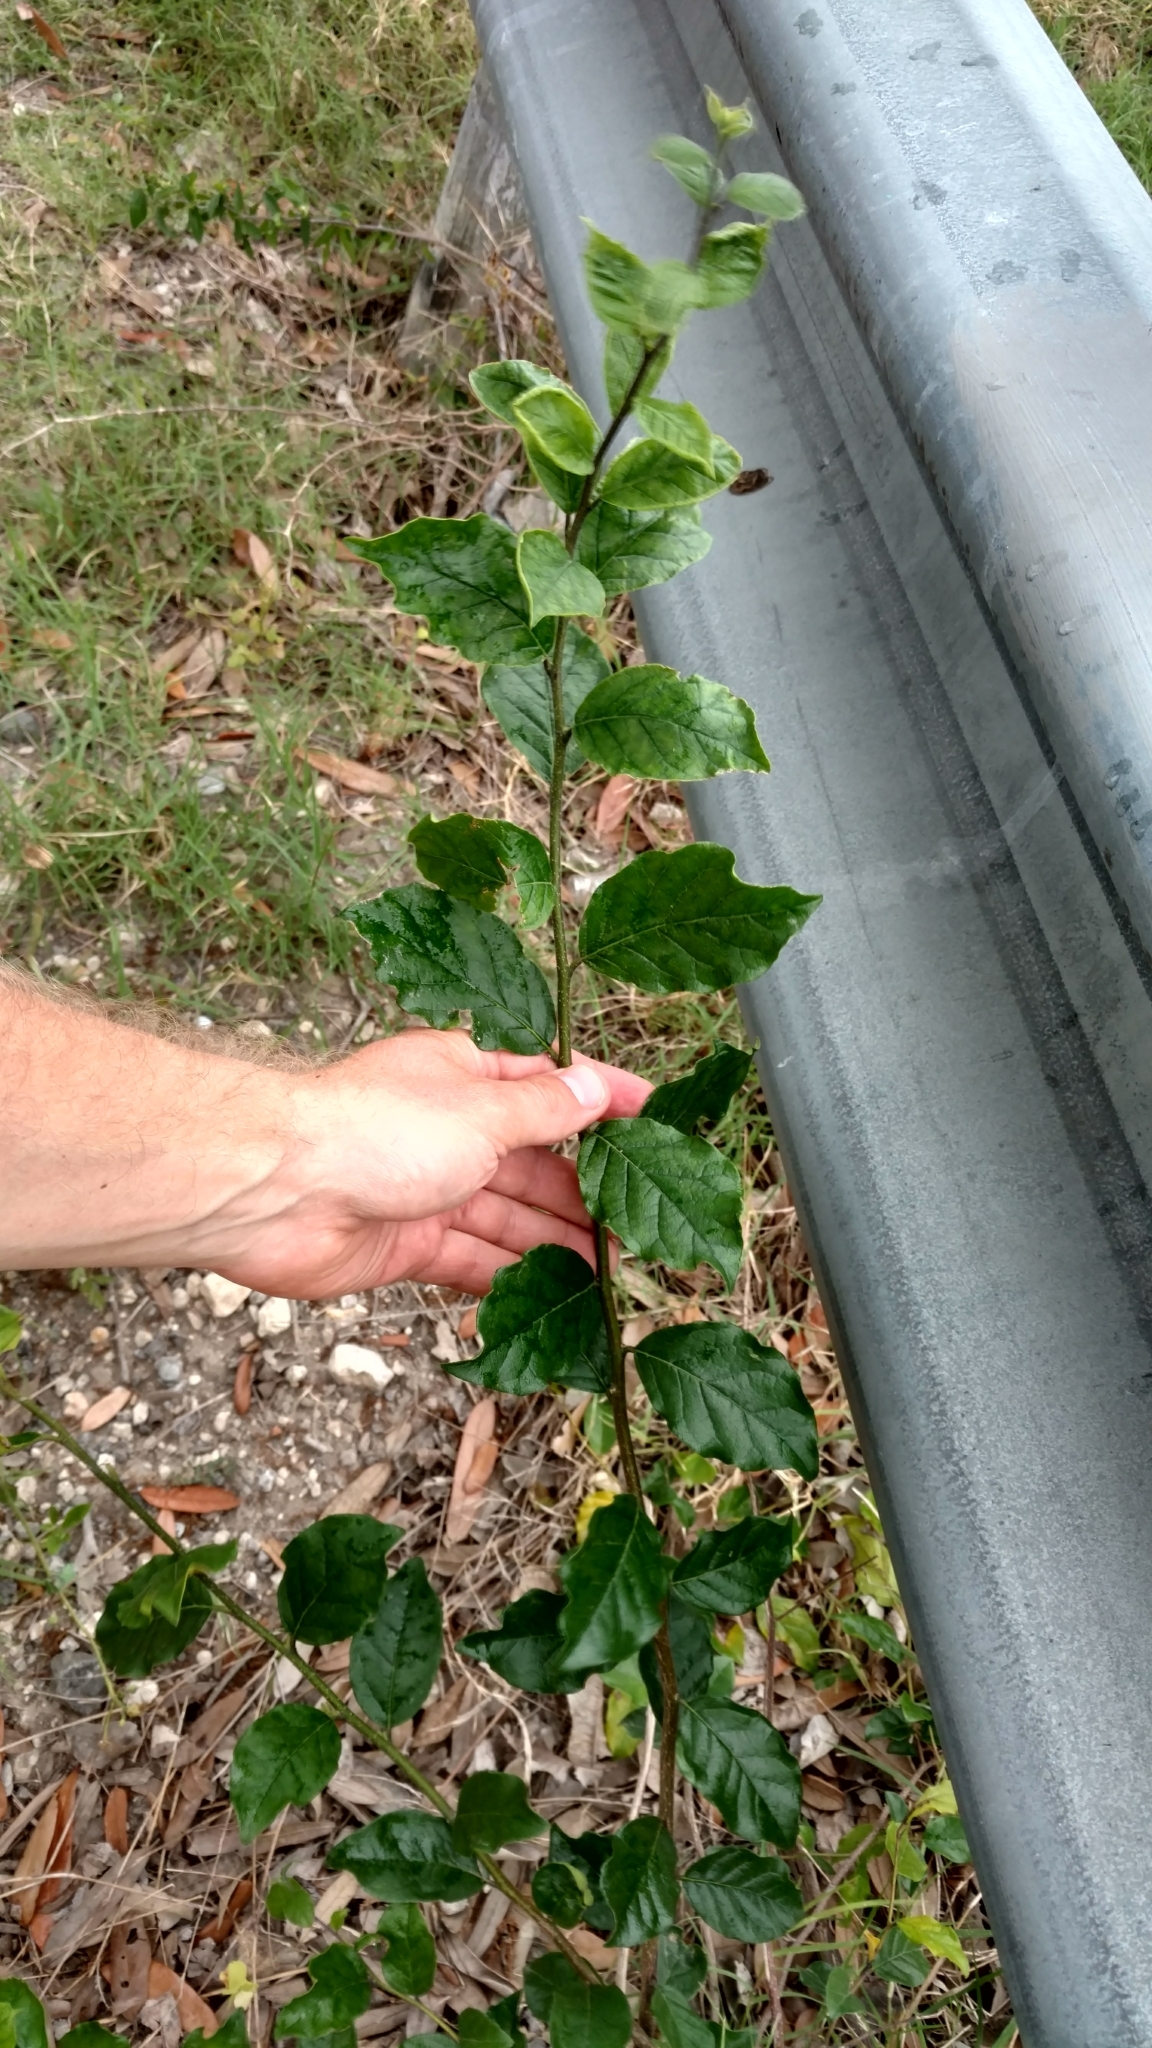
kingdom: Plantae
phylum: Tracheophyta
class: Magnoliopsida
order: Boraginales
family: Ehretiaceae
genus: Ehretia
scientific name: Ehretia anacua
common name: Sugarberry
